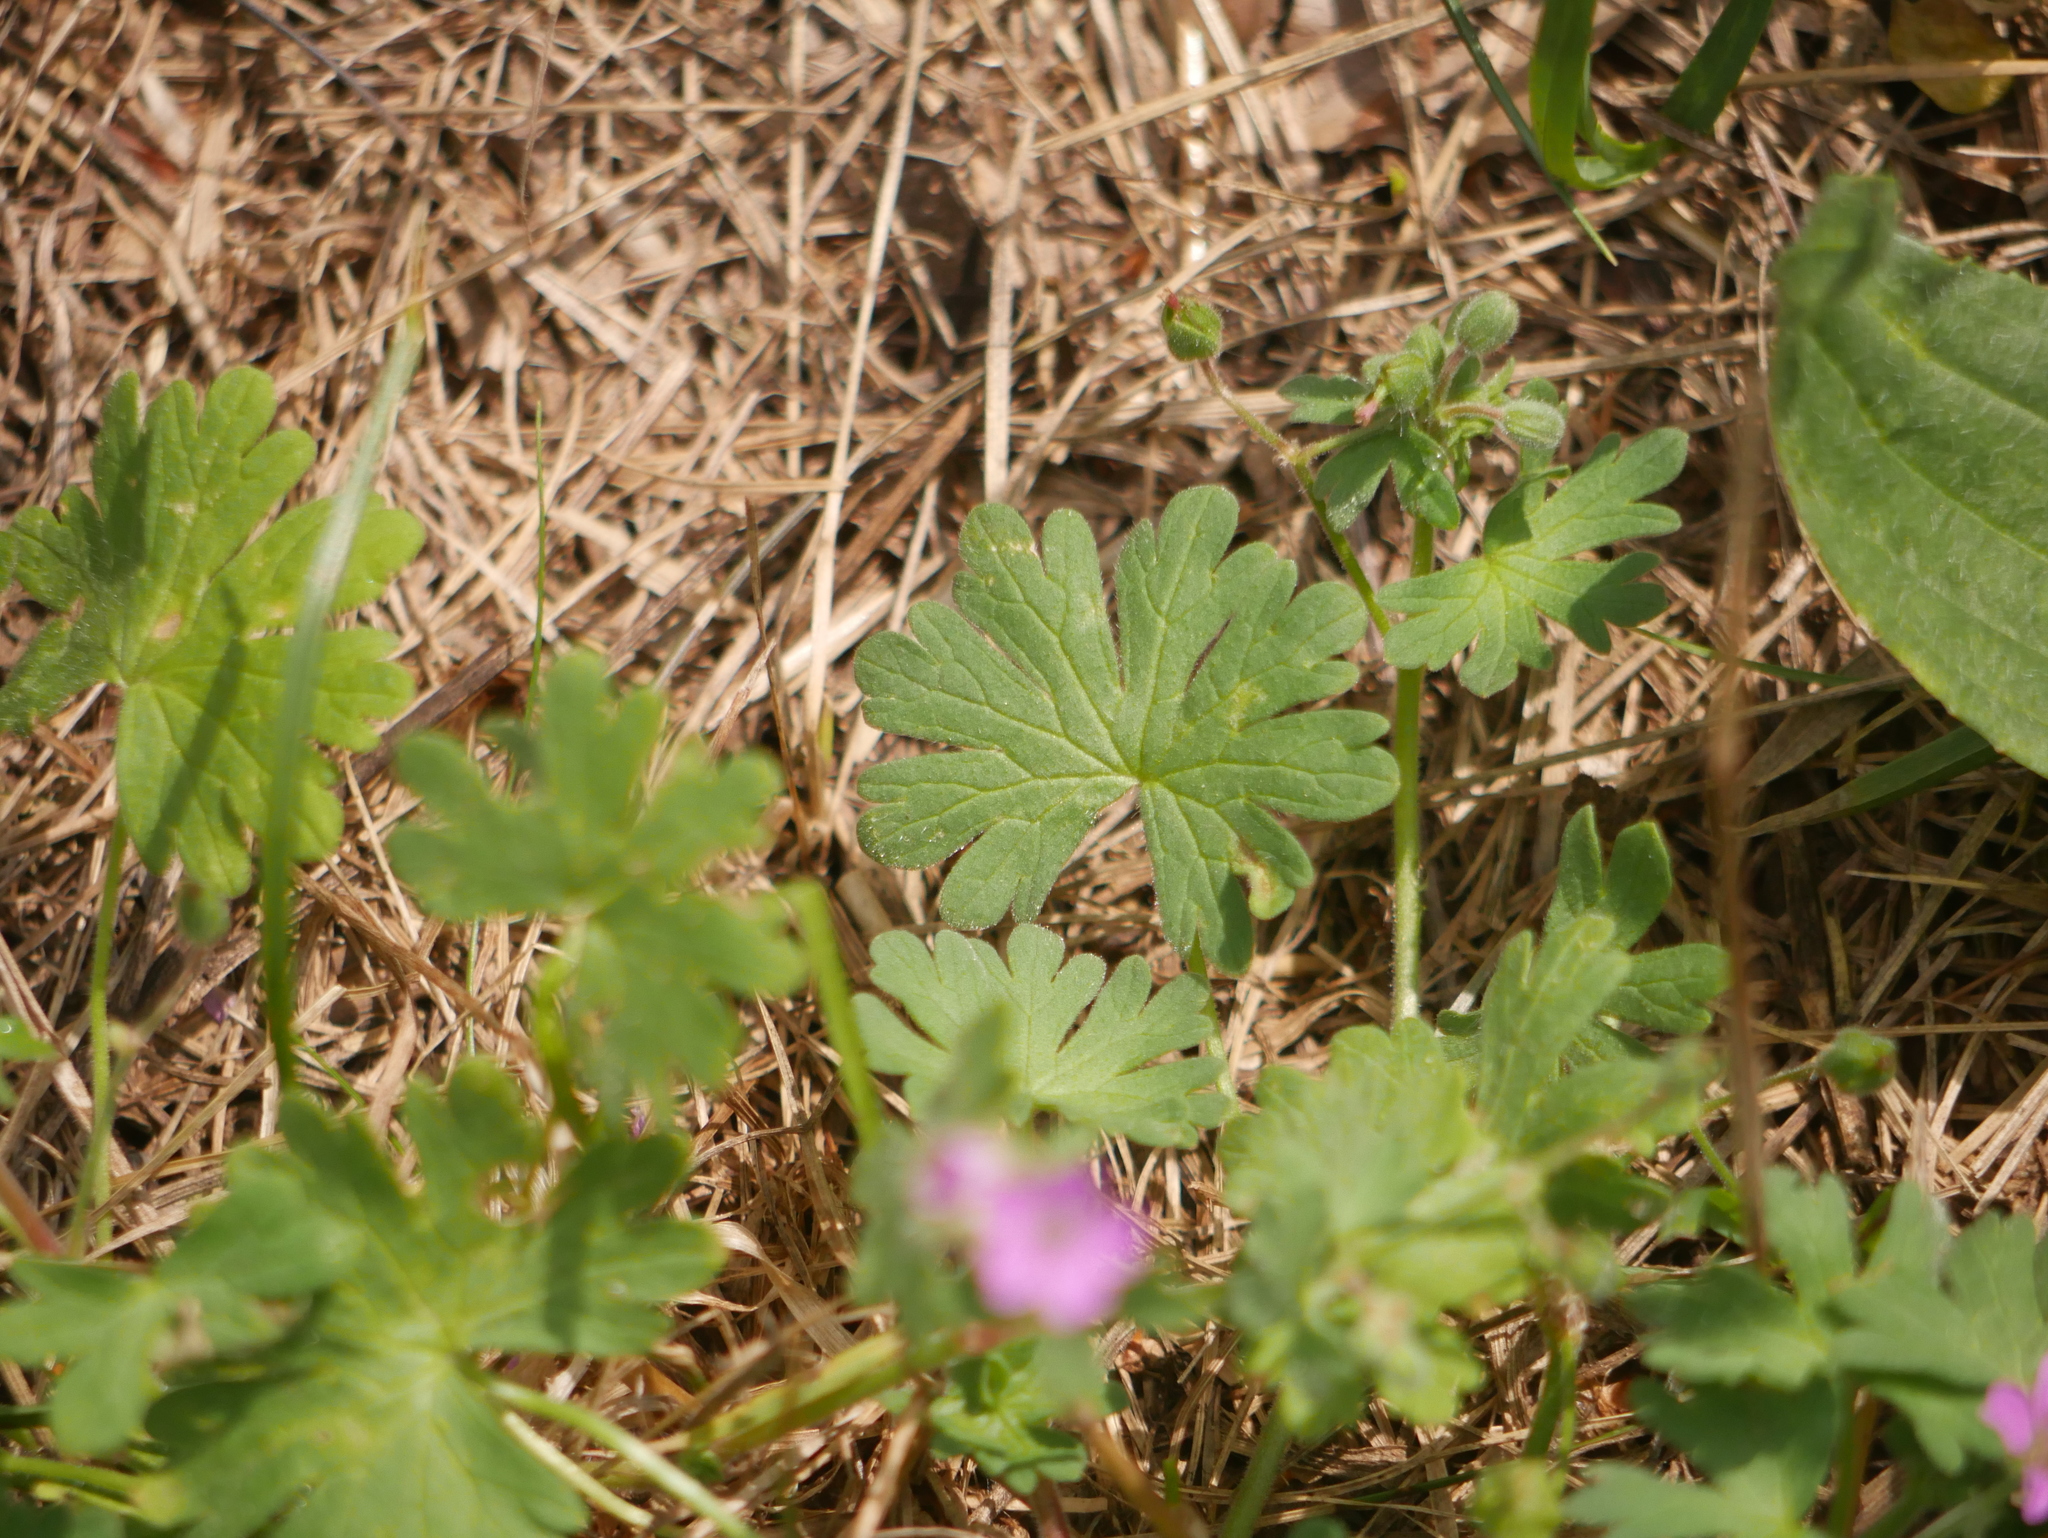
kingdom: Plantae
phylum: Tracheophyta
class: Magnoliopsida
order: Geraniales
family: Geraniaceae
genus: Geranium
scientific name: Geranium molle
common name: Dove's-foot crane's-bill
